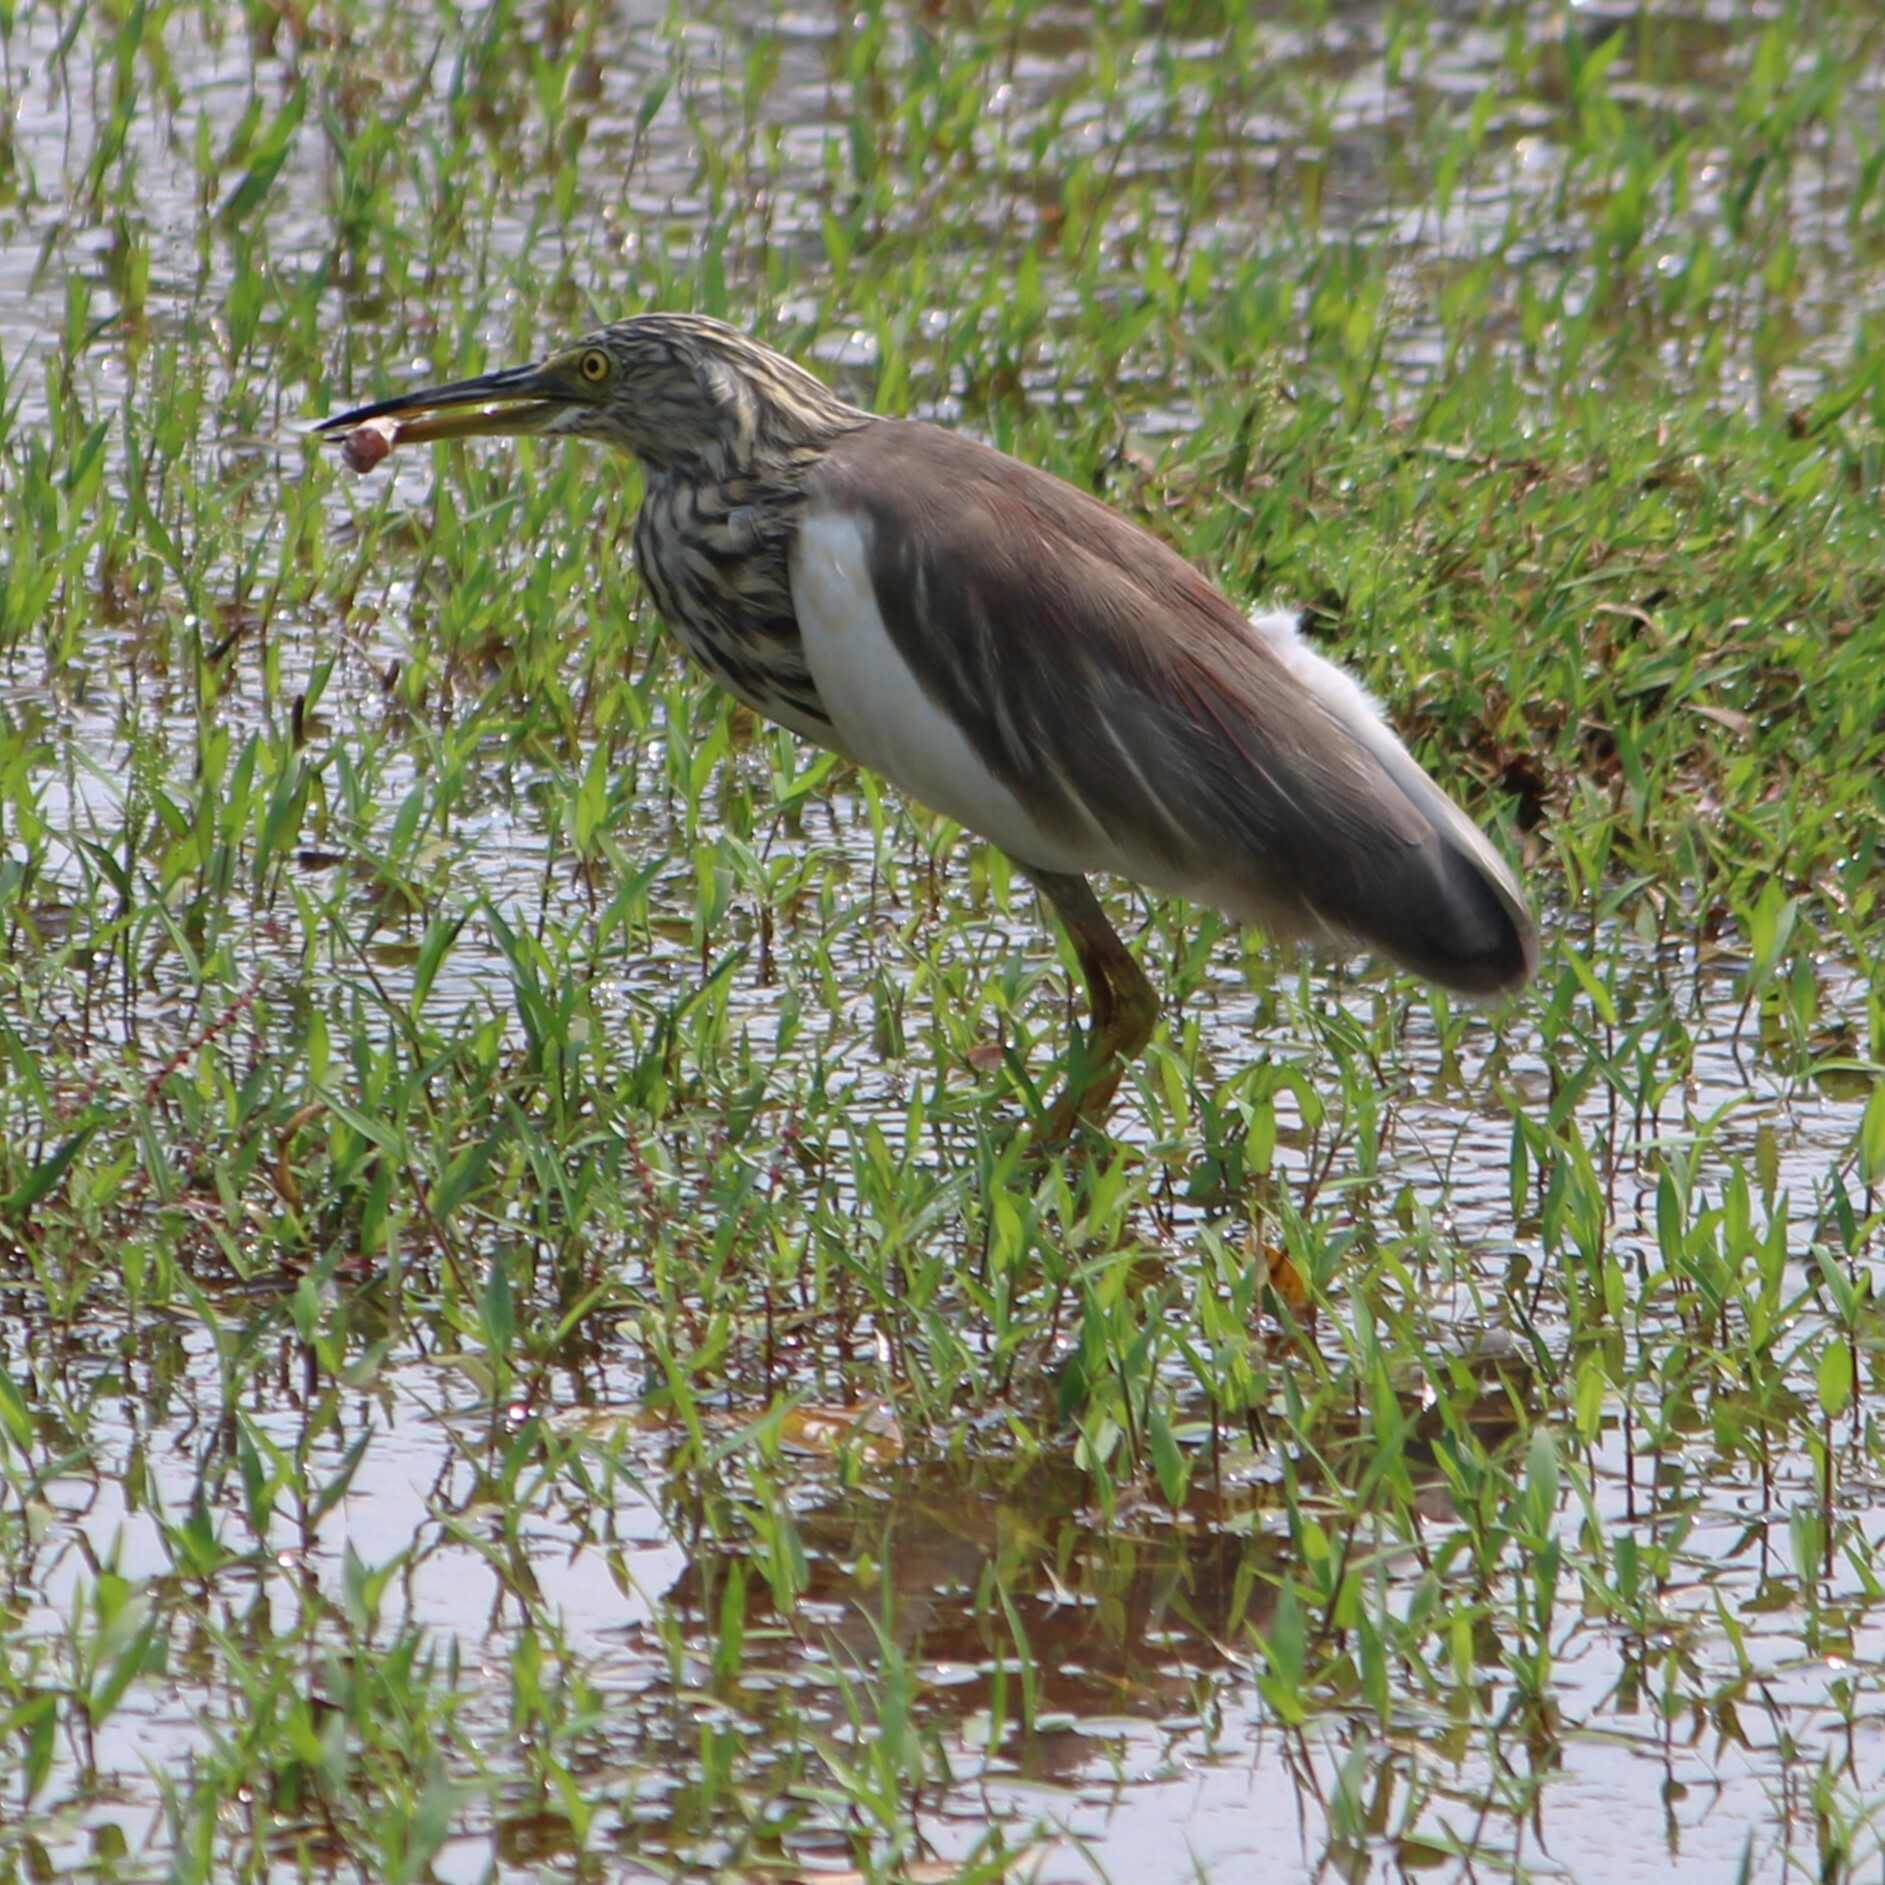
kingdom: Animalia
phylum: Chordata
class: Aves
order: Pelecaniformes
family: Ardeidae
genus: Ardeola
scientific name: Ardeola grayii
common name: Indian pond heron
